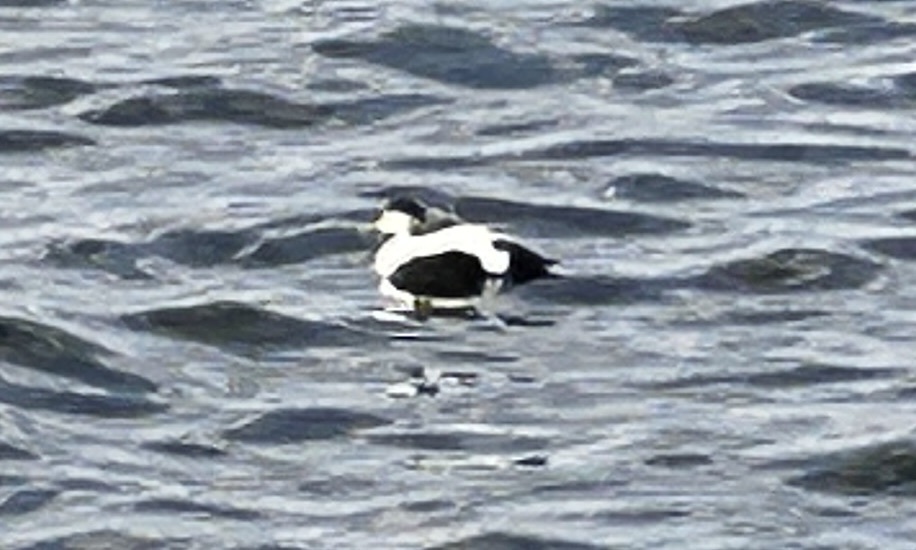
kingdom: Animalia
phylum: Chordata
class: Aves
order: Anseriformes
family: Anatidae
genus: Somateria
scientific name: Somateria mollissima
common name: Common eider
